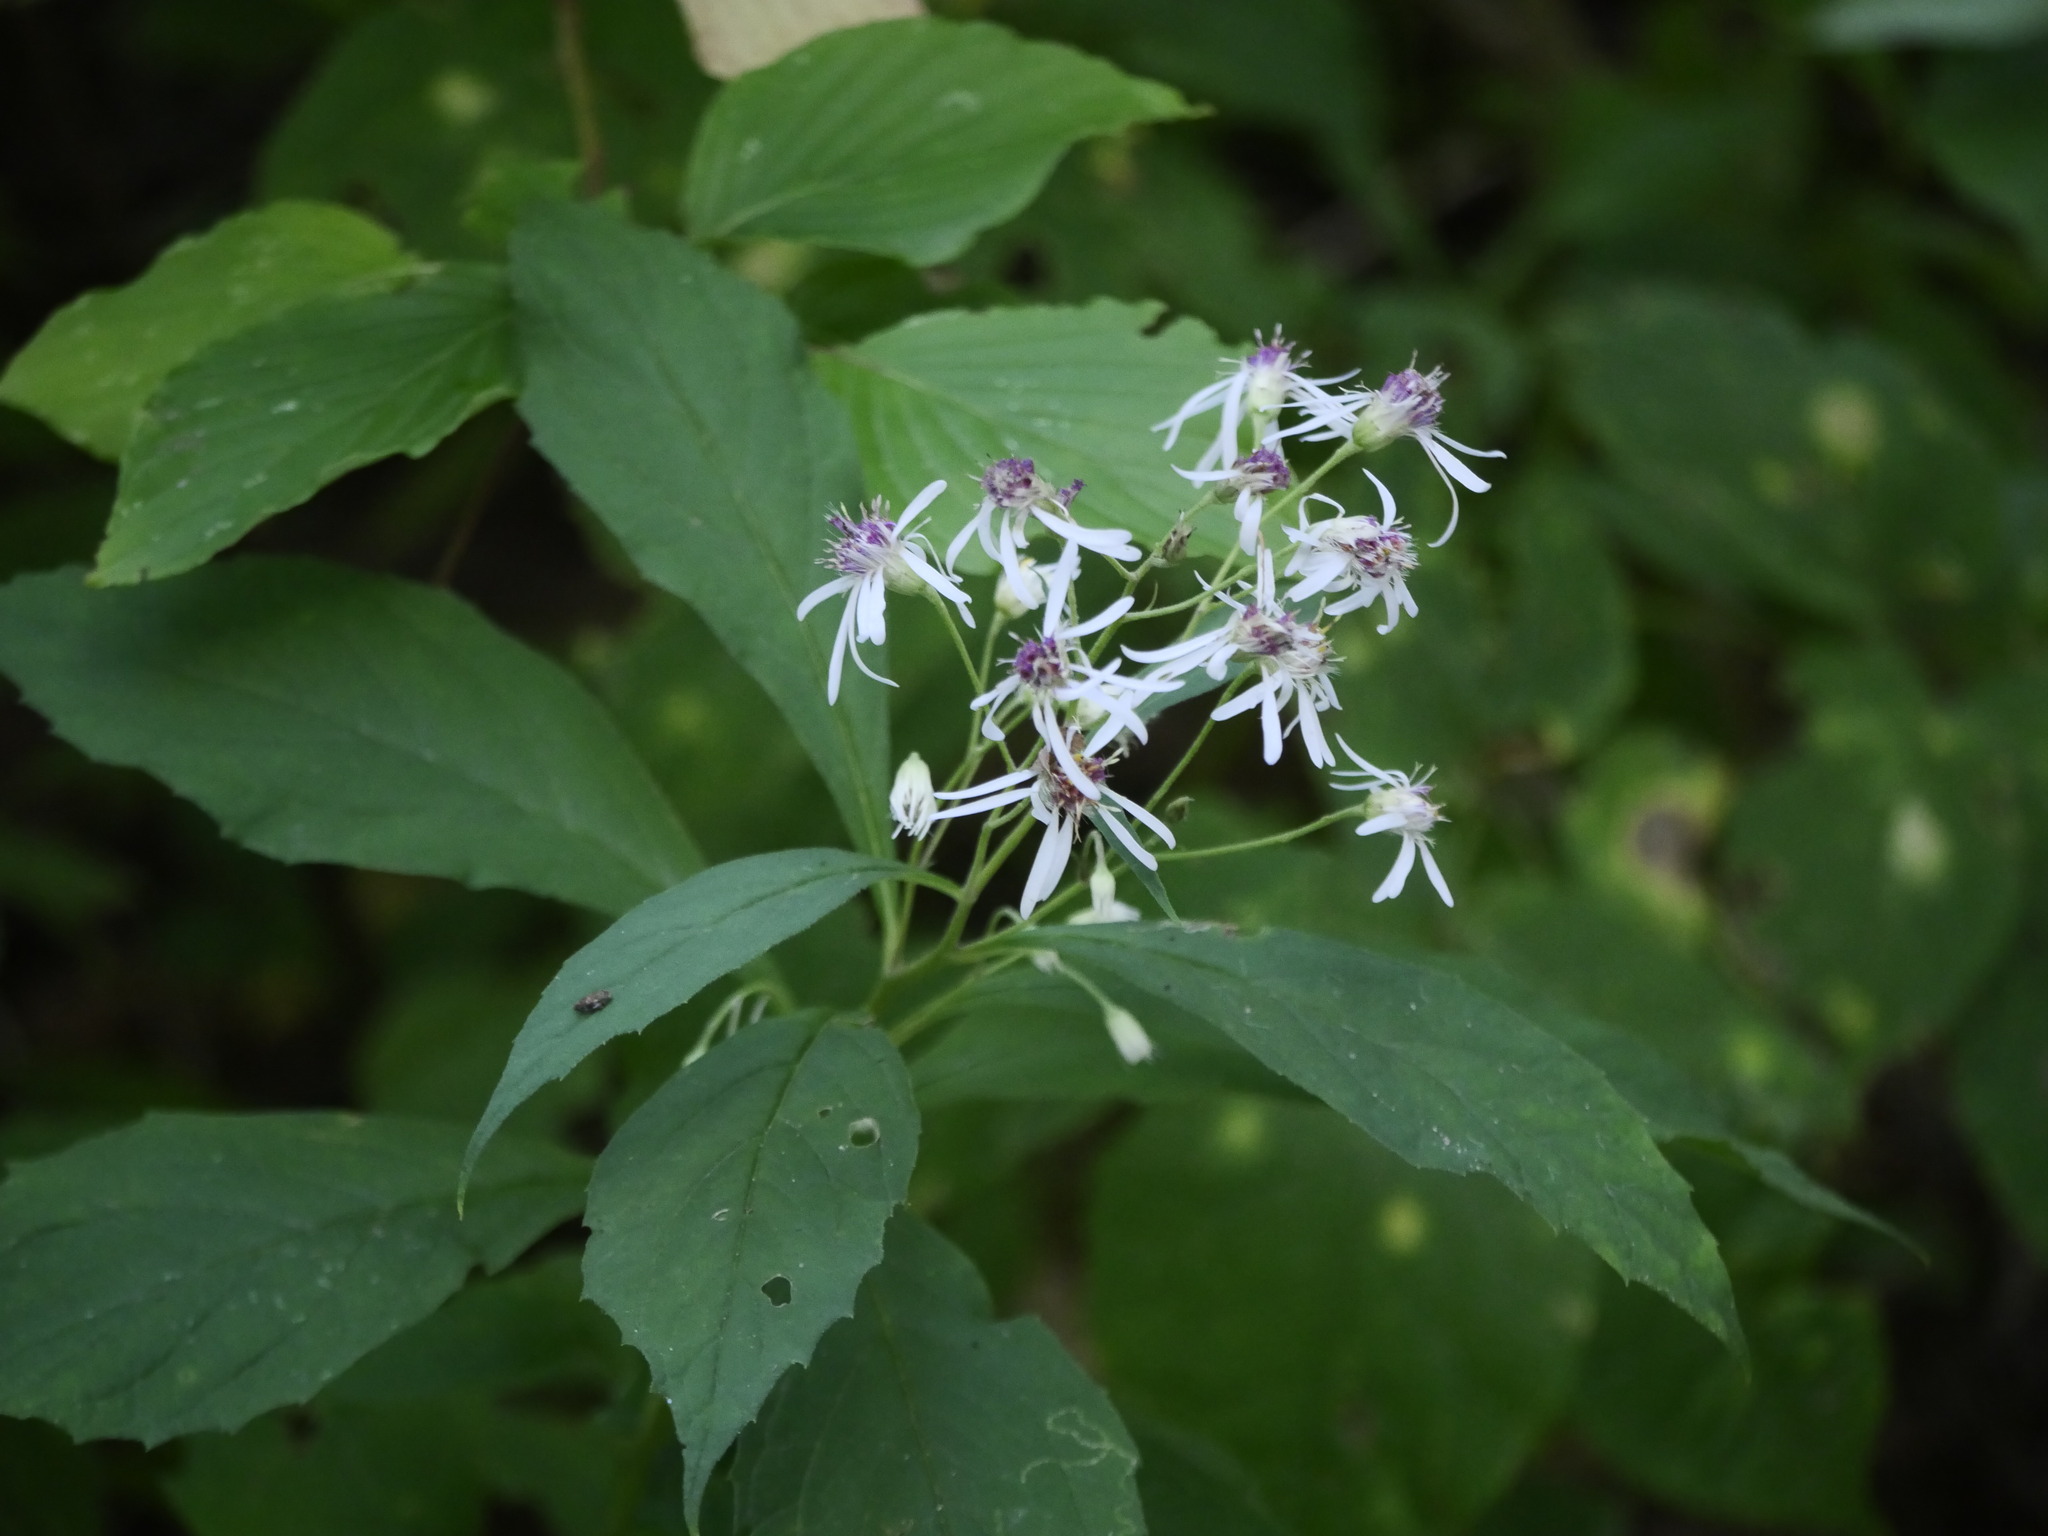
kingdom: Plantae
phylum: Tracheophyta
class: Magnoliopsida
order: Asterales
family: Asteraceae
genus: Oclemena
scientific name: Oclemena acuminata
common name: Mountain aster
